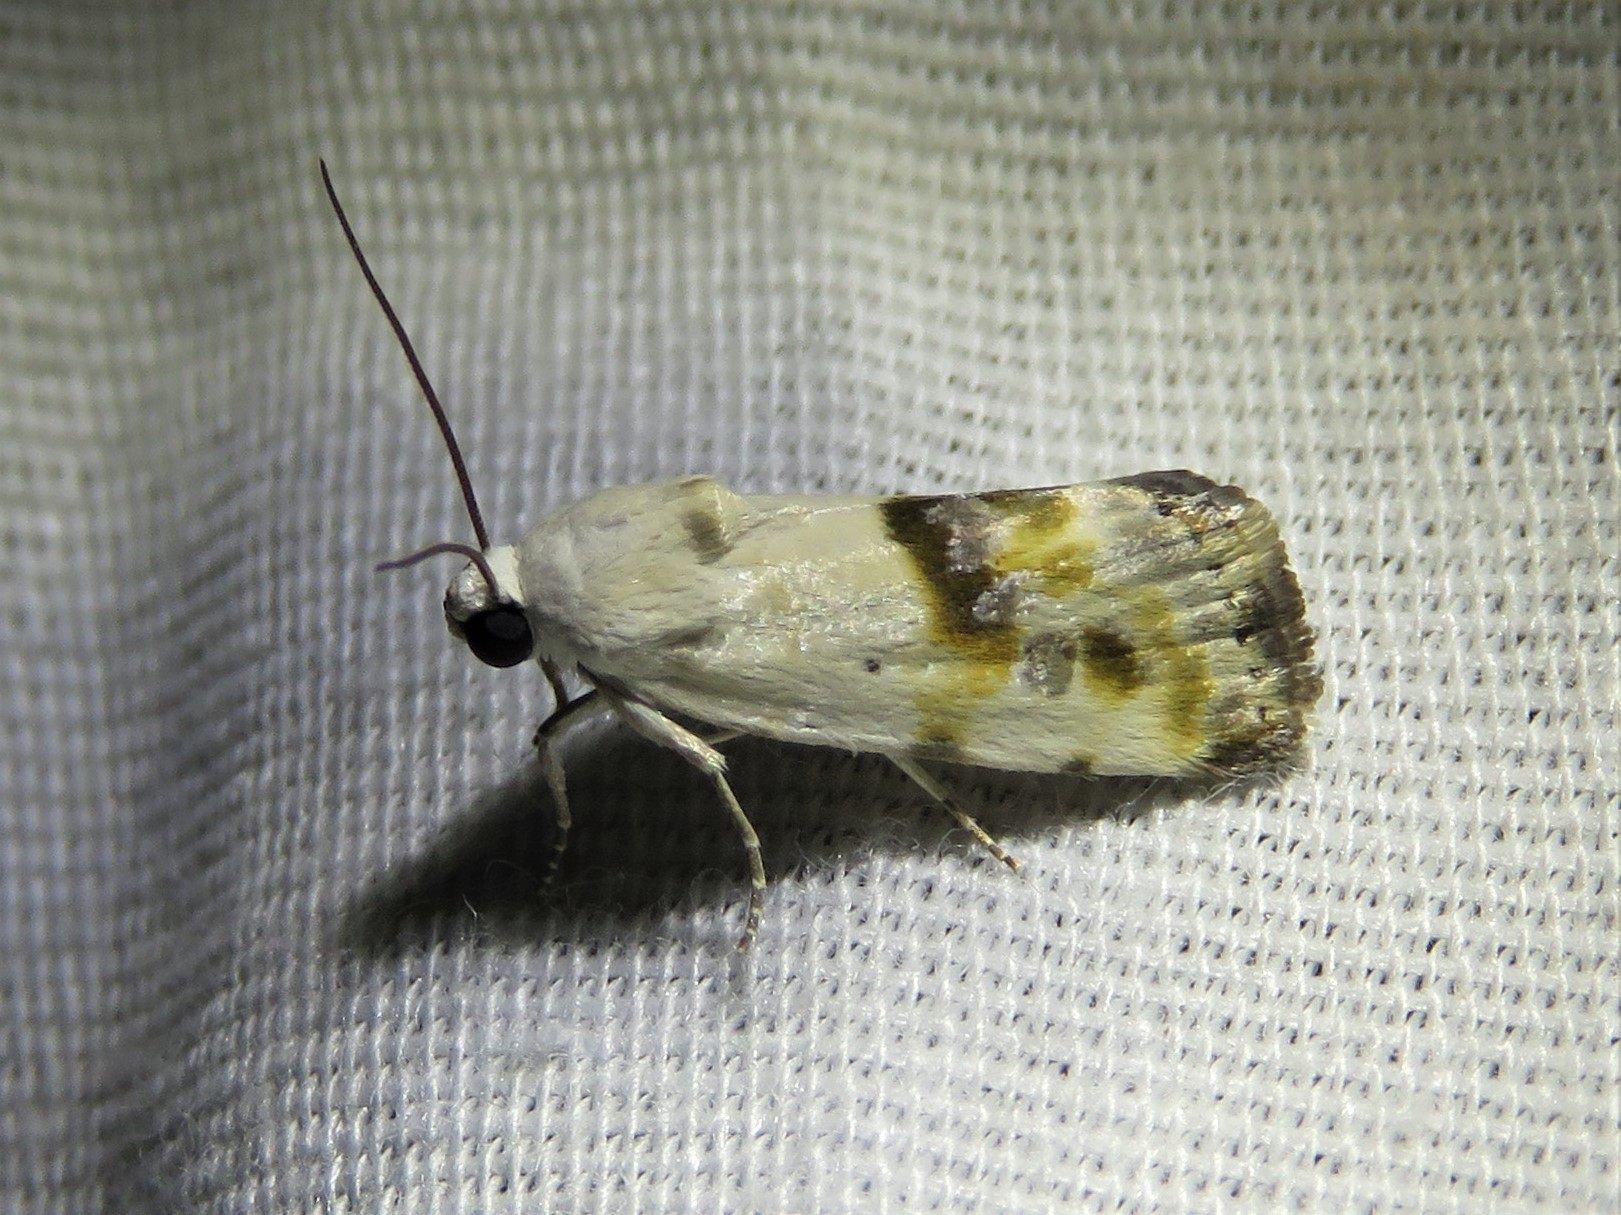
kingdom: Animalia
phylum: Arthropoda
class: Insecta
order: Lepidoptera
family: Noctuidae
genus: Acontia
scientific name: Acontia candefacta
